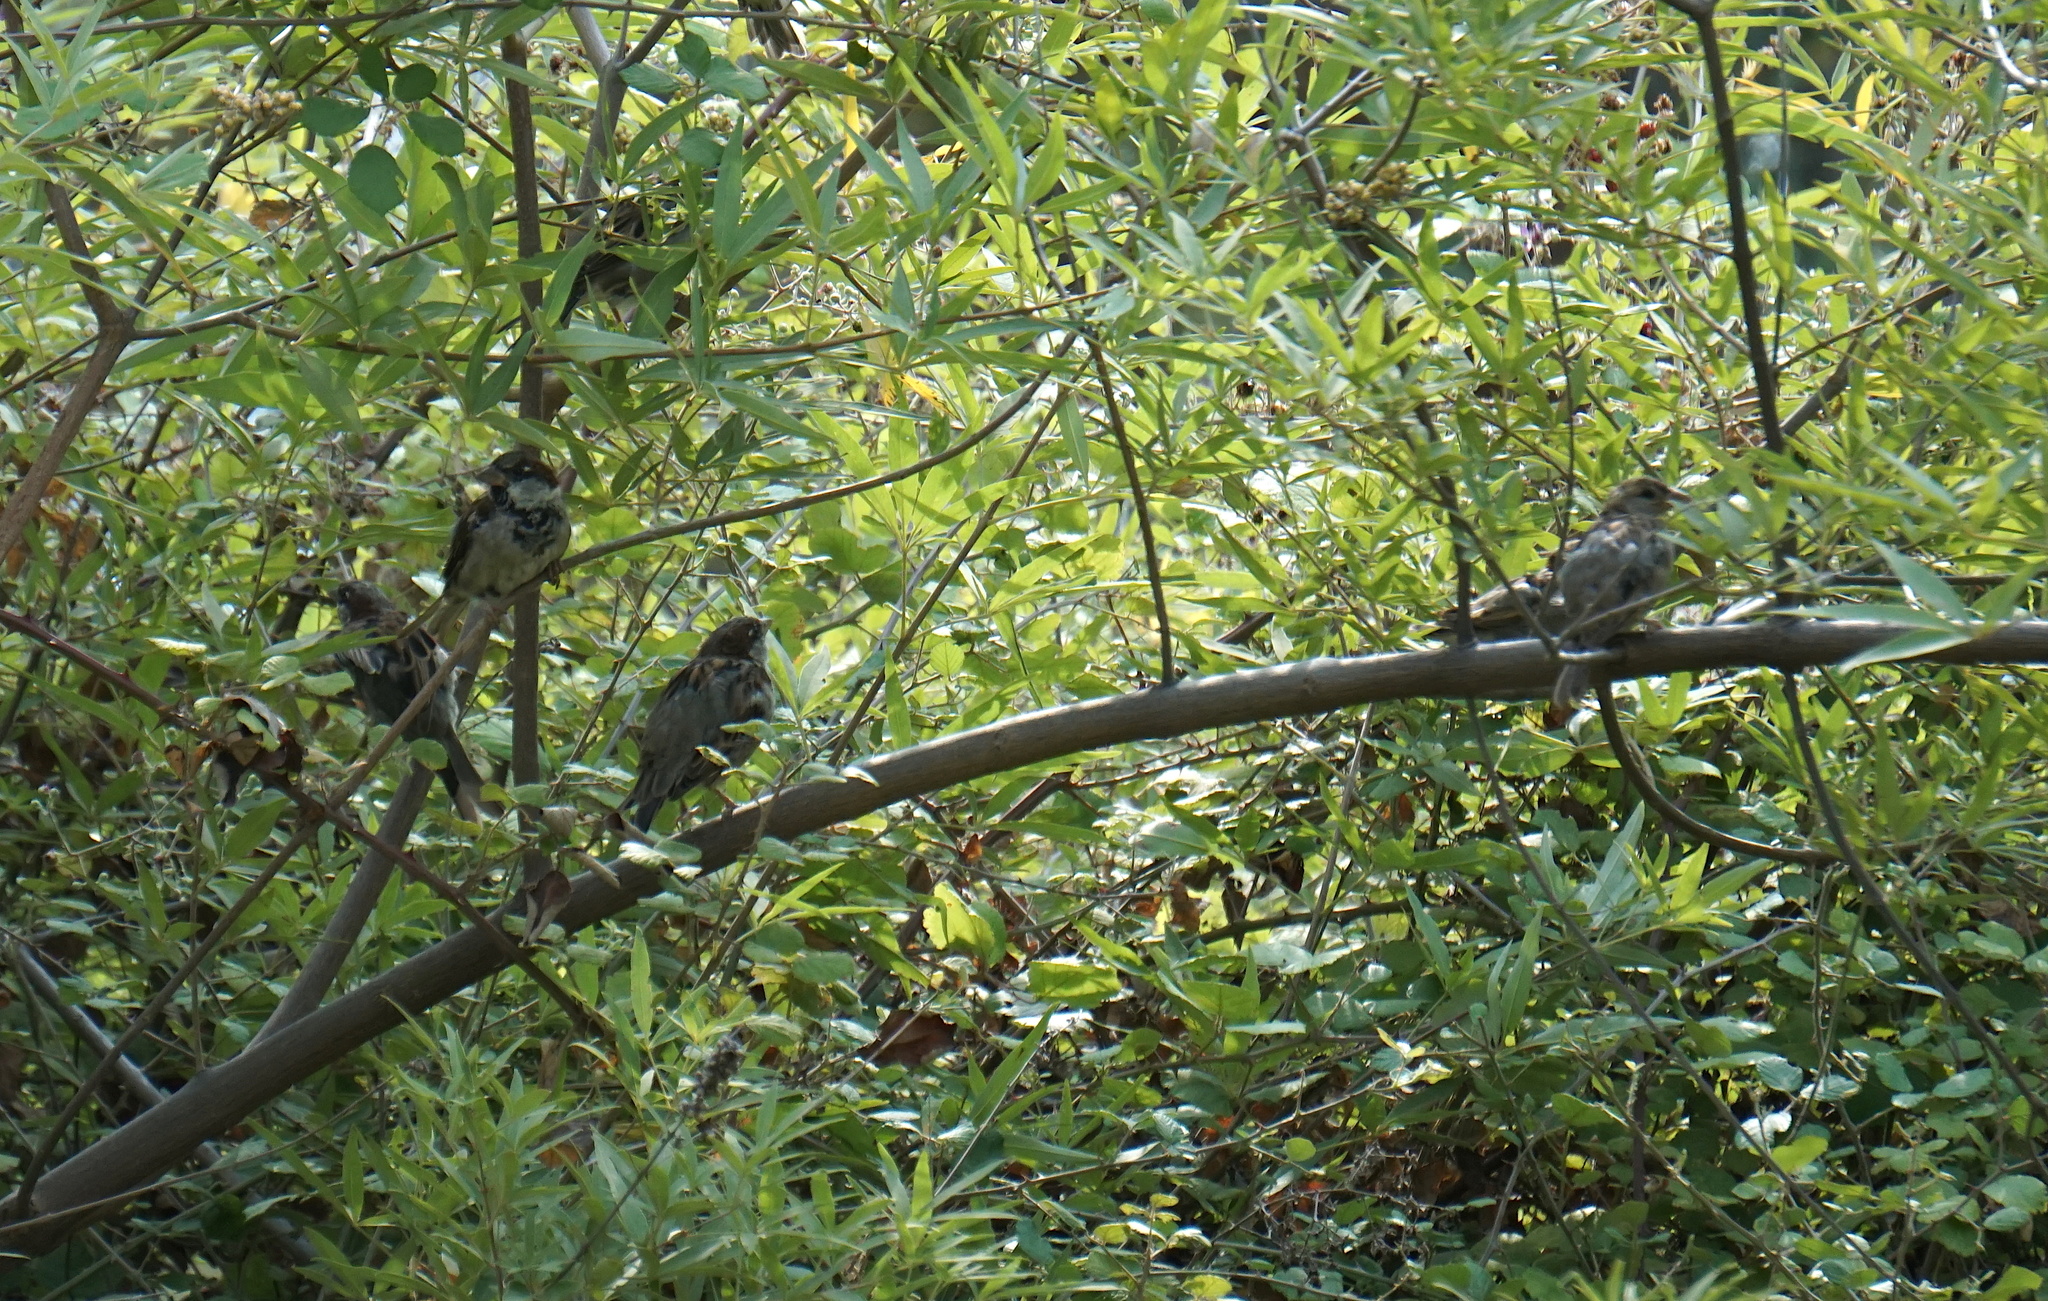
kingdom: Animalia
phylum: Chordata
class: Aves
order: Passeriformes
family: Passeridae
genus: Passer
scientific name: Passer domesticus
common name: House sparrow
